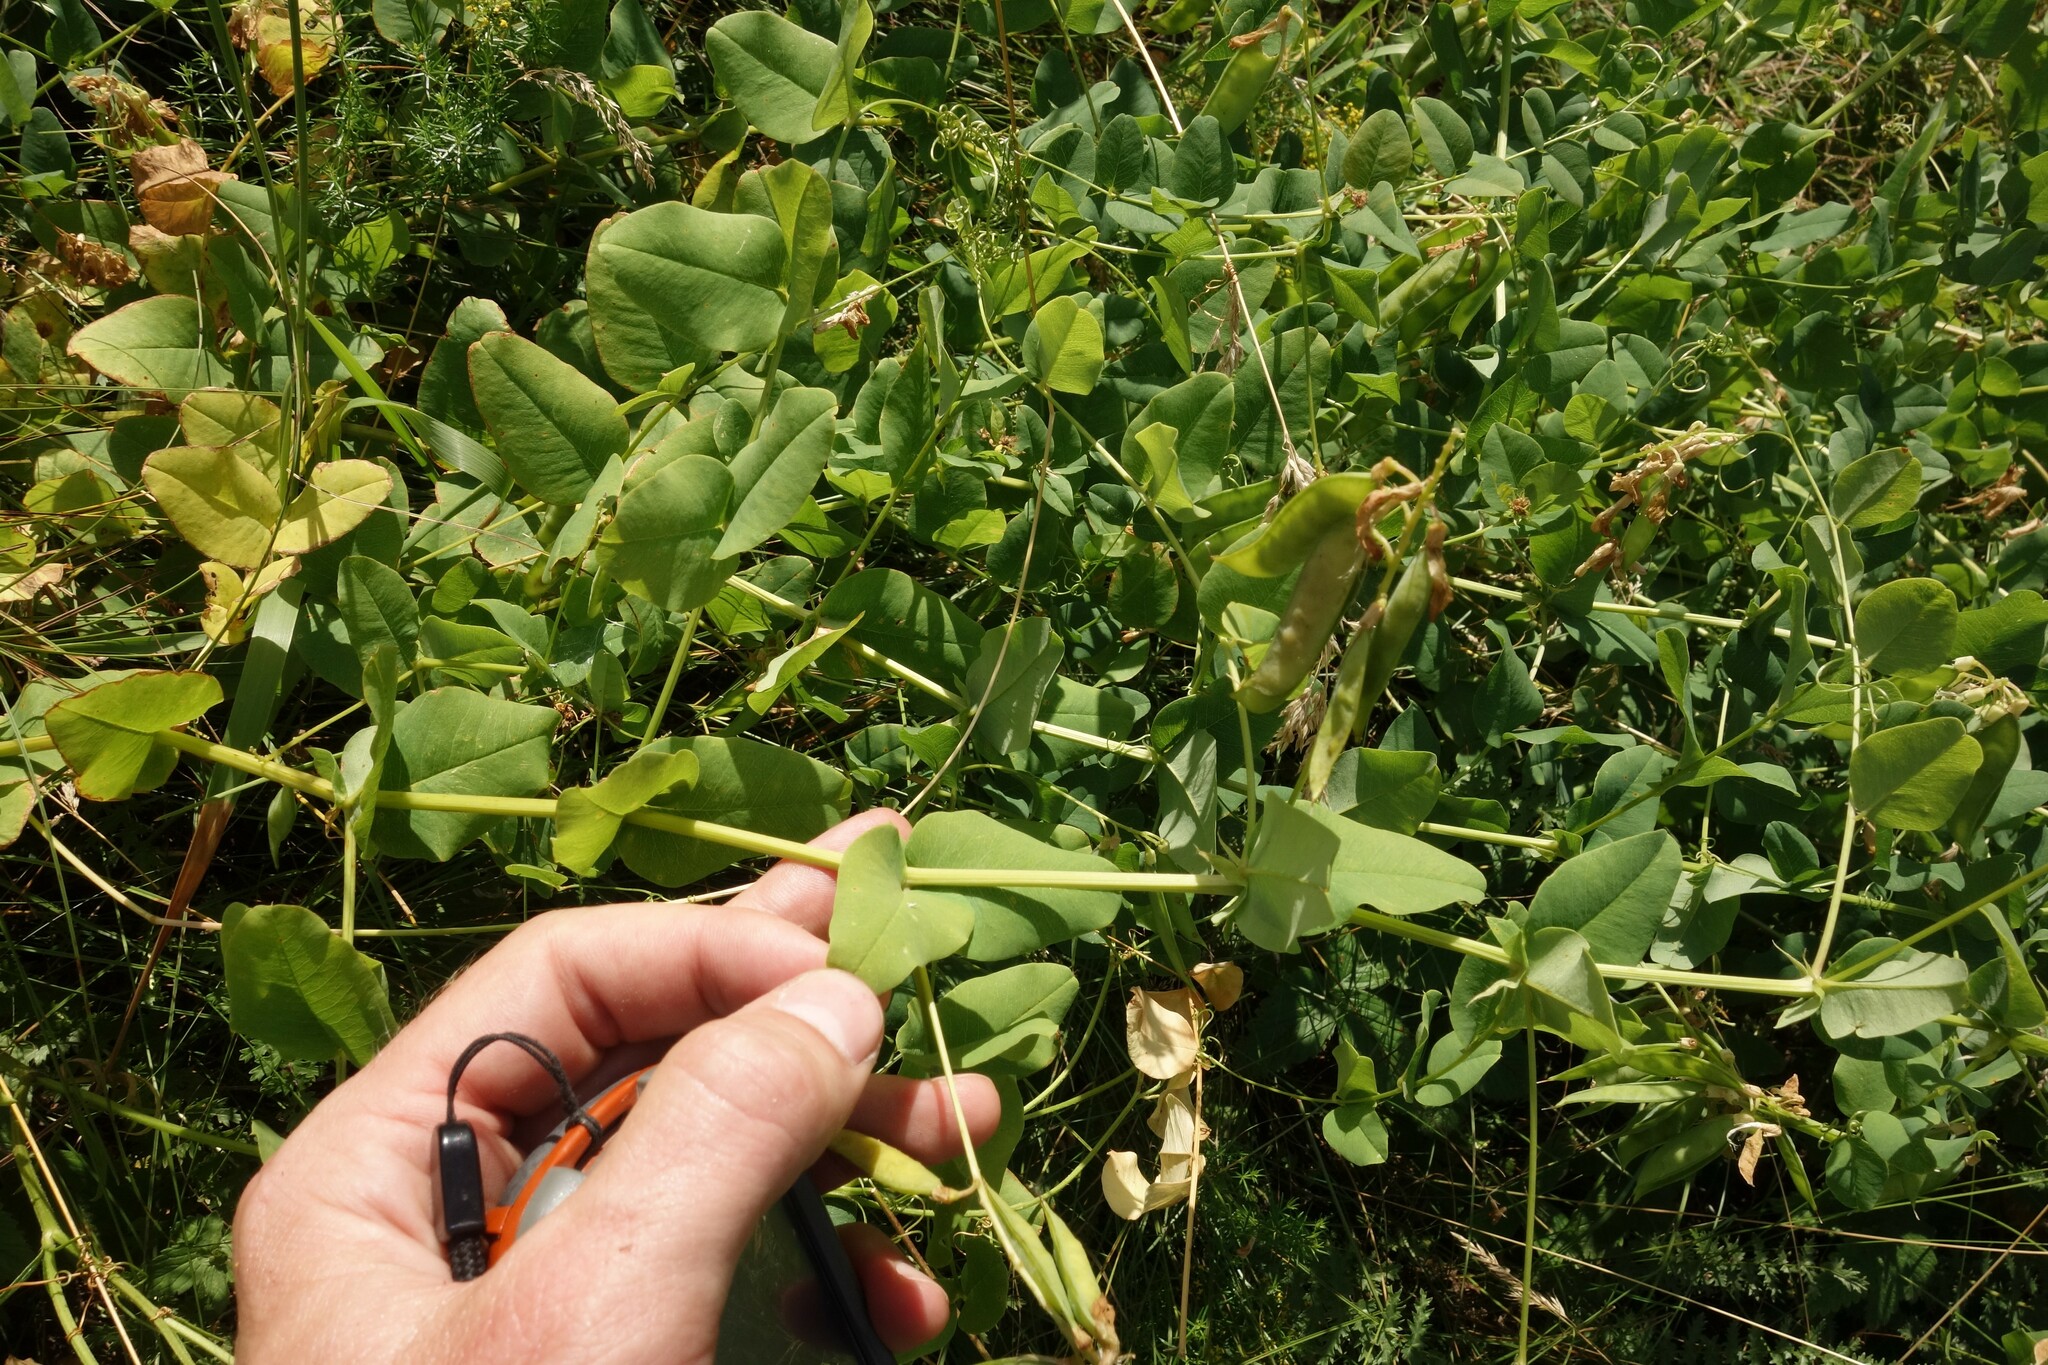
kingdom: Plantae
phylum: Tracheophyta
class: Magnoliopsida
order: Fabales
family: Fabaceae
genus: Vicia
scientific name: Vicia pisiformis
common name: Pale-flower vetch
